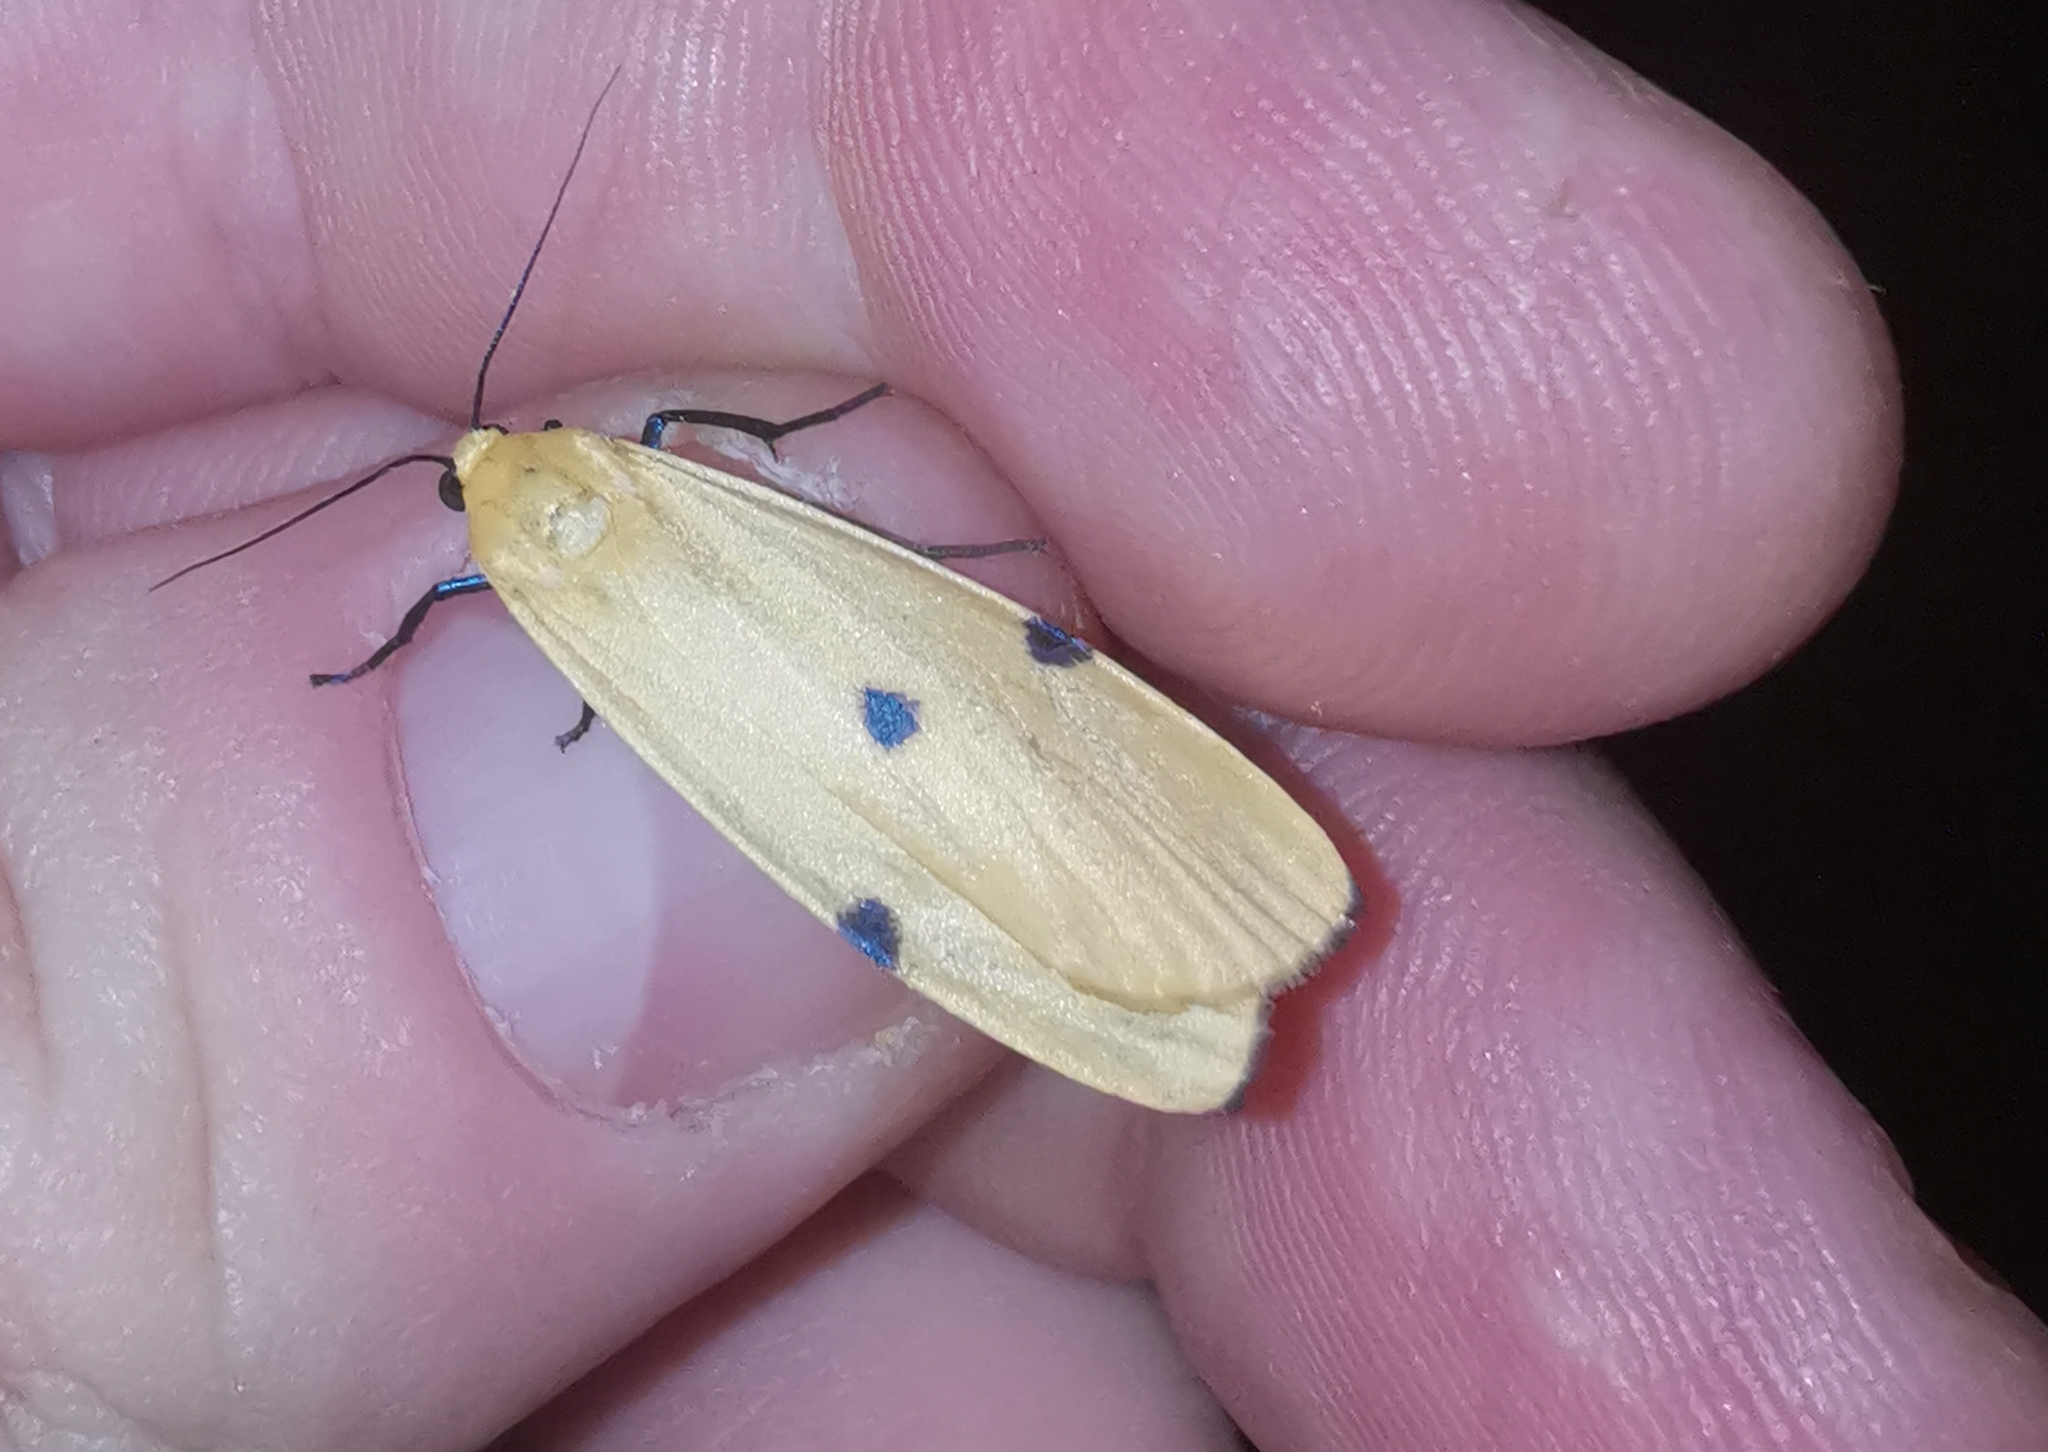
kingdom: Animalia
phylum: Arthropoda
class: Insecta
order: Lepidoptera
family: Erebidae
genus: Lithosia
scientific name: Lithosia quadra
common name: Four-spotted footman
